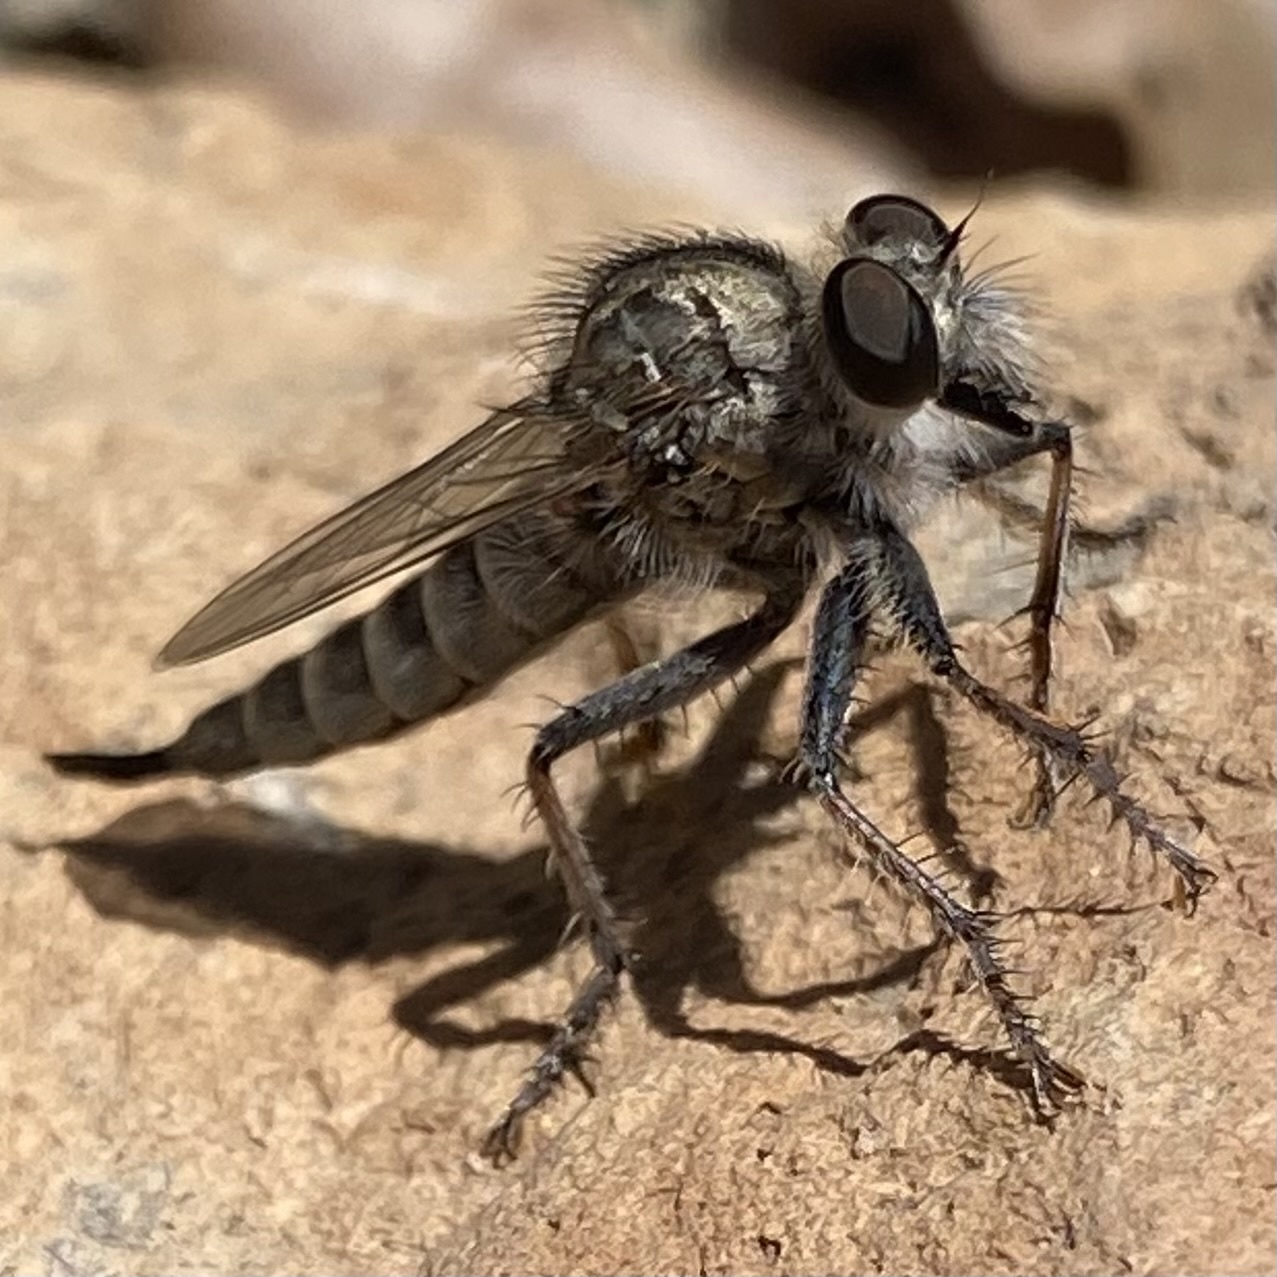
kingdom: Animalia
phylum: Arthropoda
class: Insecta
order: Diptera
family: Asilidae
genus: Efferia
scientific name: Efferia
